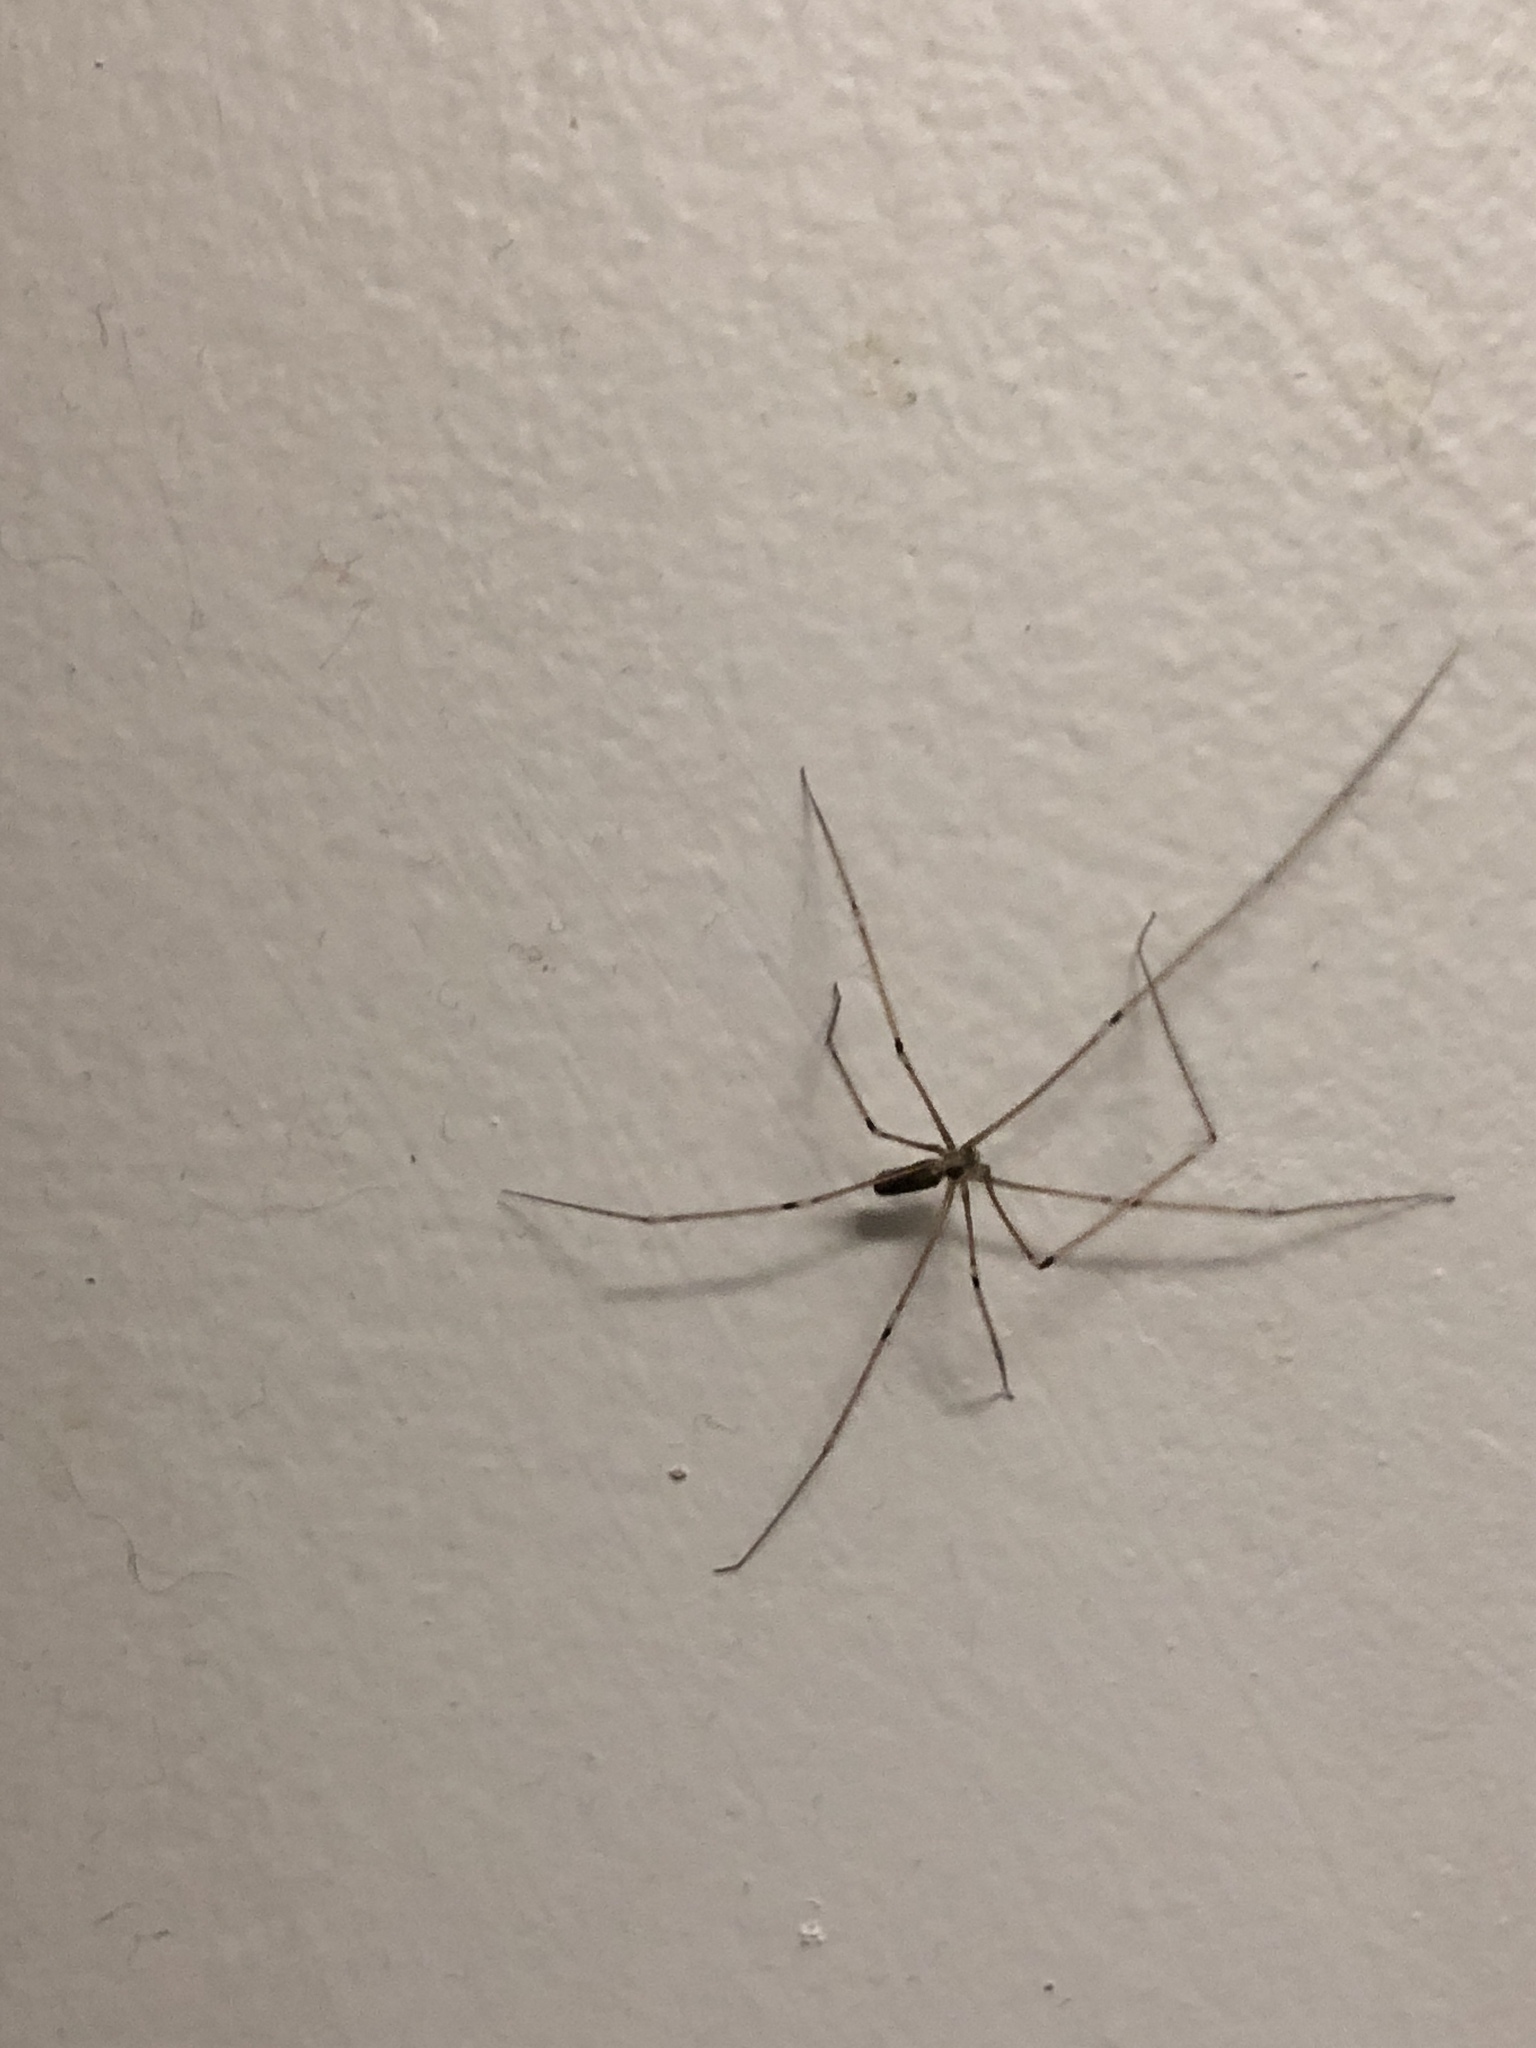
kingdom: Animalia
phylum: Arthropoda
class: Arachnida
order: Araneae
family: Pholcidae
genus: Pholcus
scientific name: Pholcus phalangioides
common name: Longbodied cellar spider
